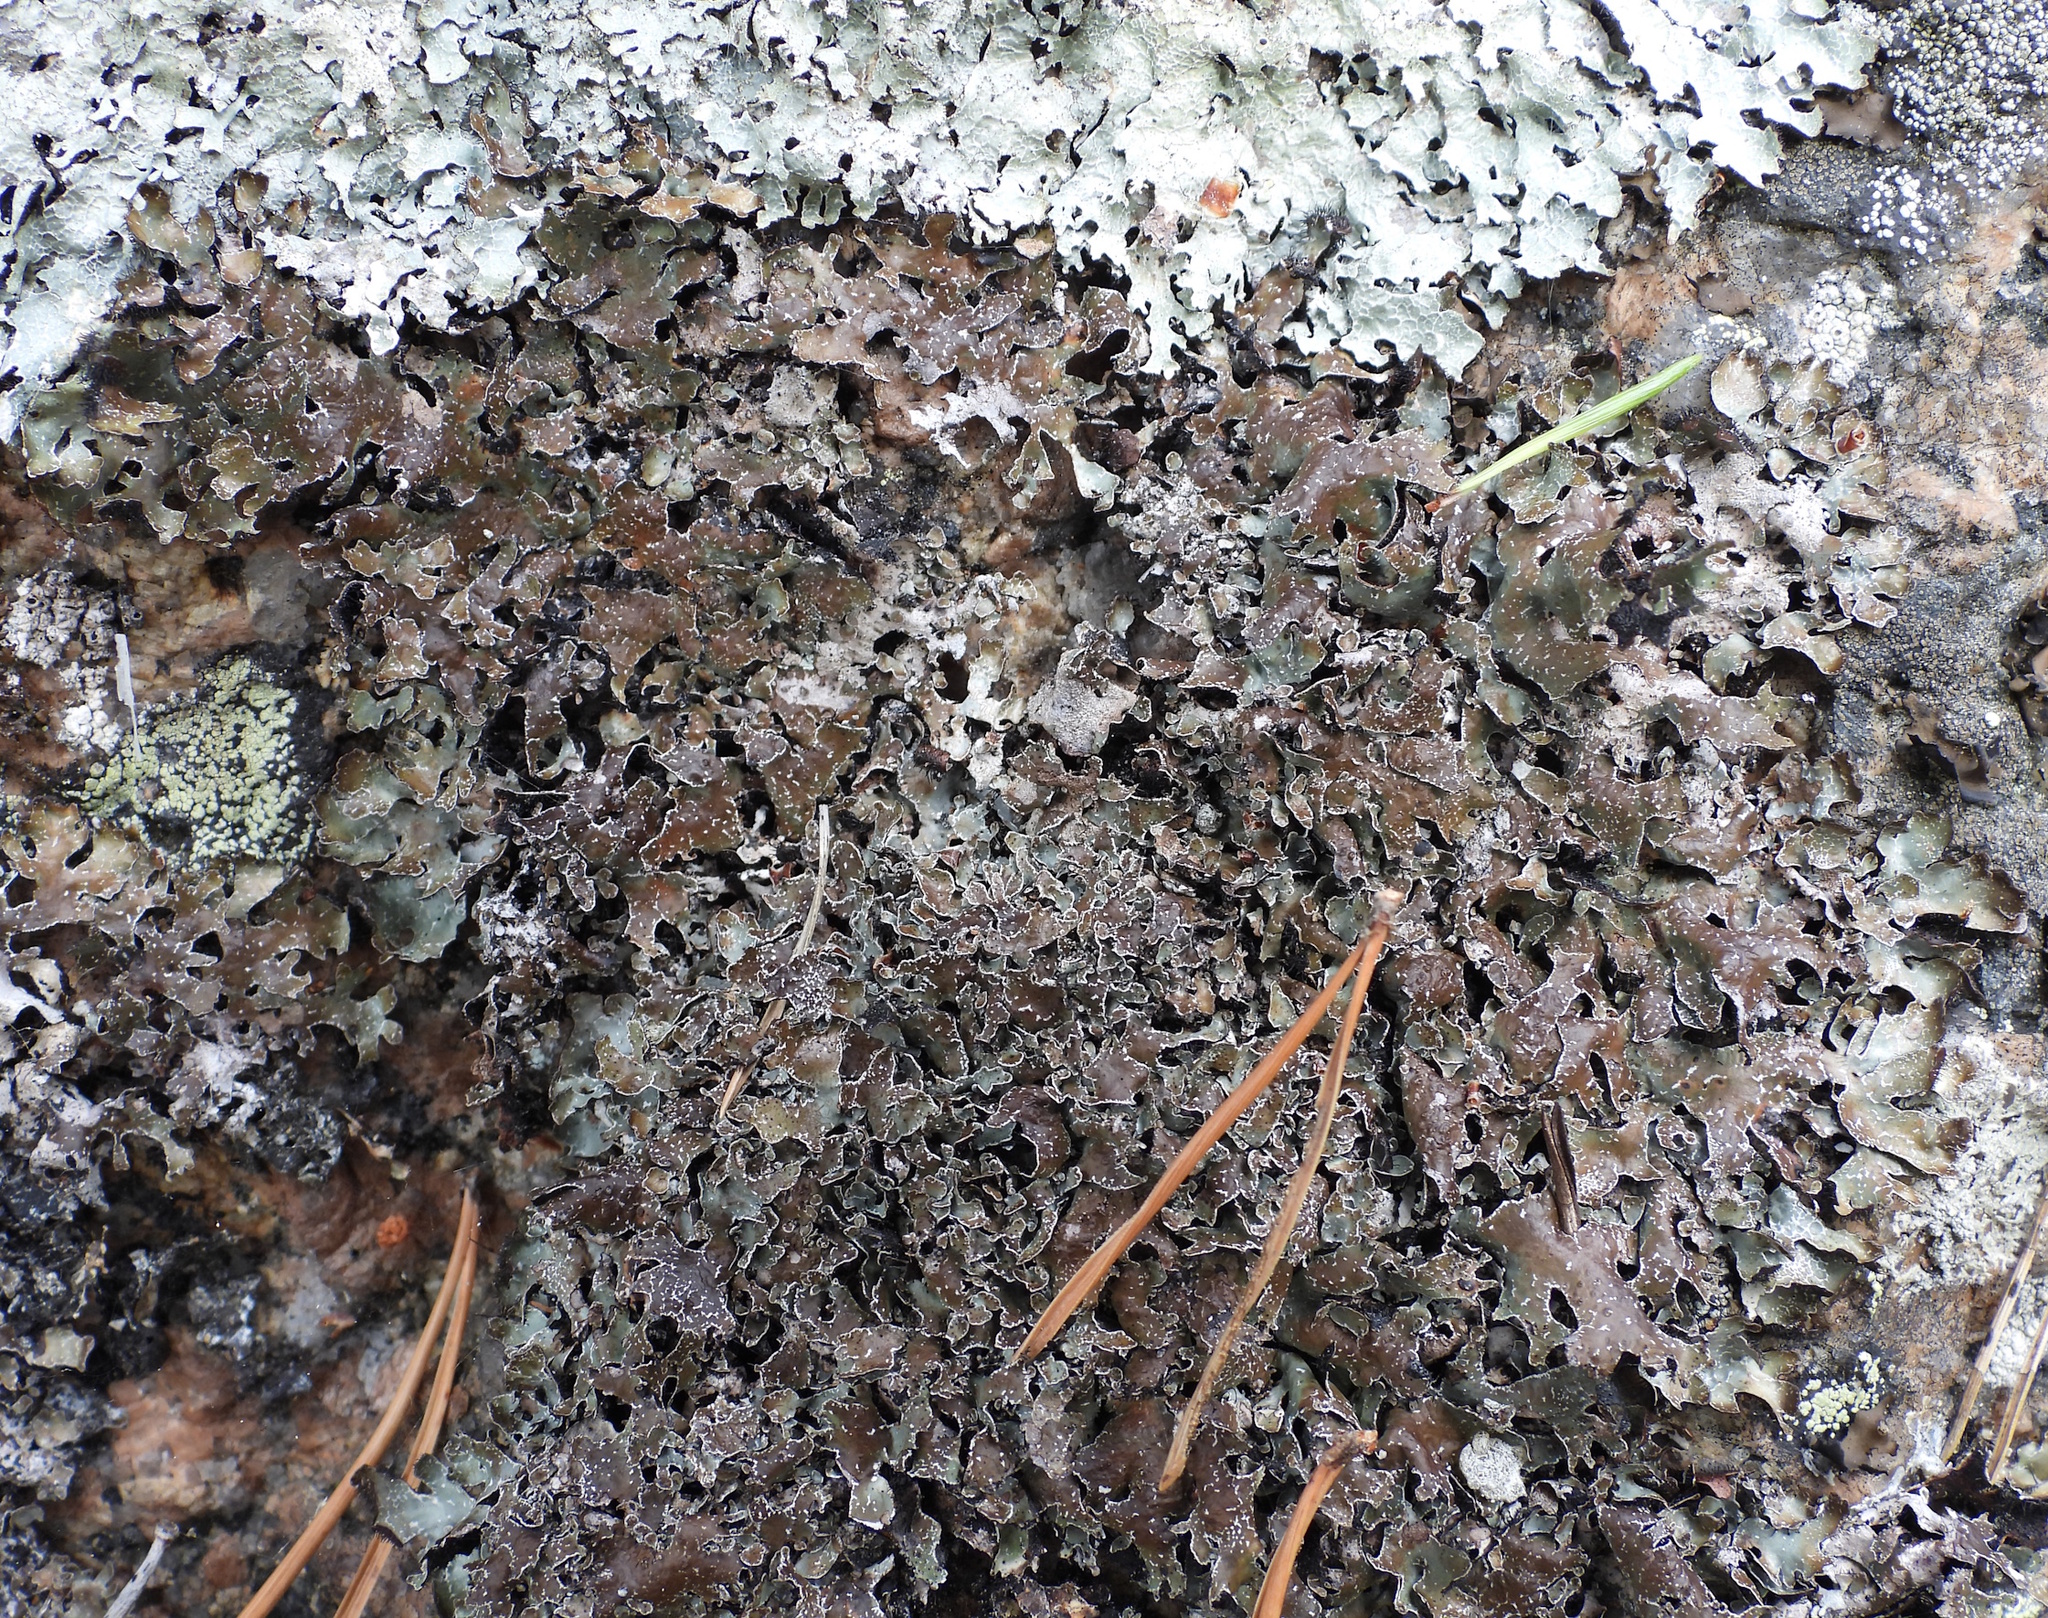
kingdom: Fungi
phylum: Ascomycota
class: Lecanoromycetes
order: Lecanorales
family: Parmeliaceae
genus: Parmelia
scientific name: Parmelia omphalodes
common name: Smoky crottle
